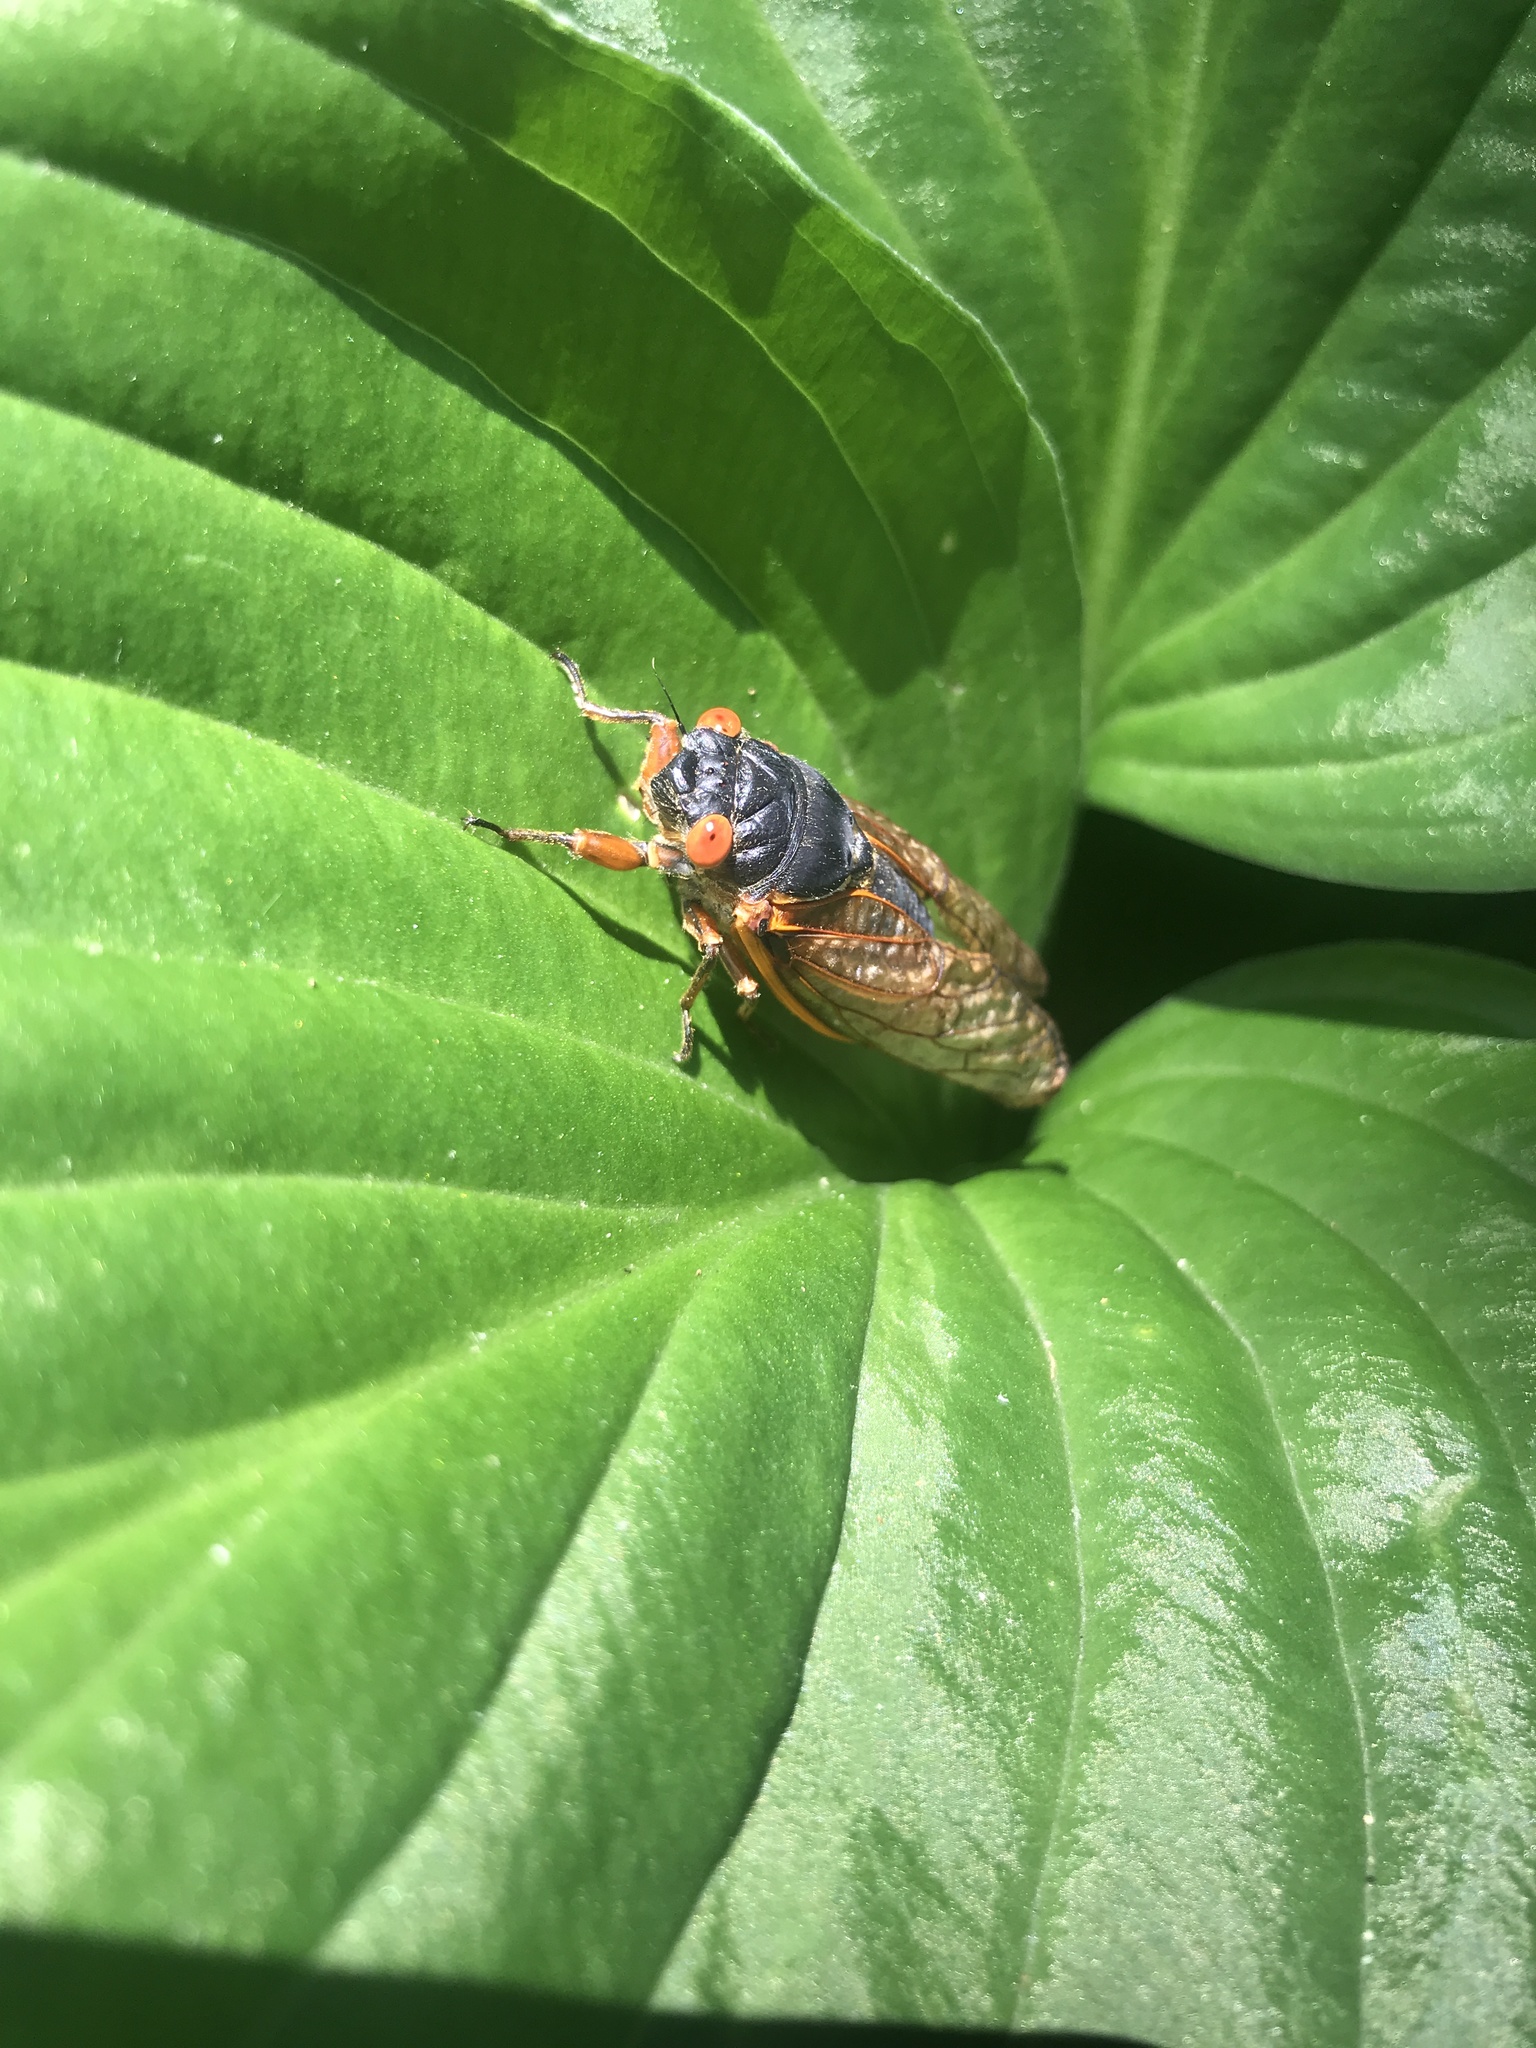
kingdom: Animalia
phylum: Arthropoda
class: Insecta
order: Hemiptera
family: Cicadidae
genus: Magicicada
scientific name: Magicicada septendecim
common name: Periodical cicada
